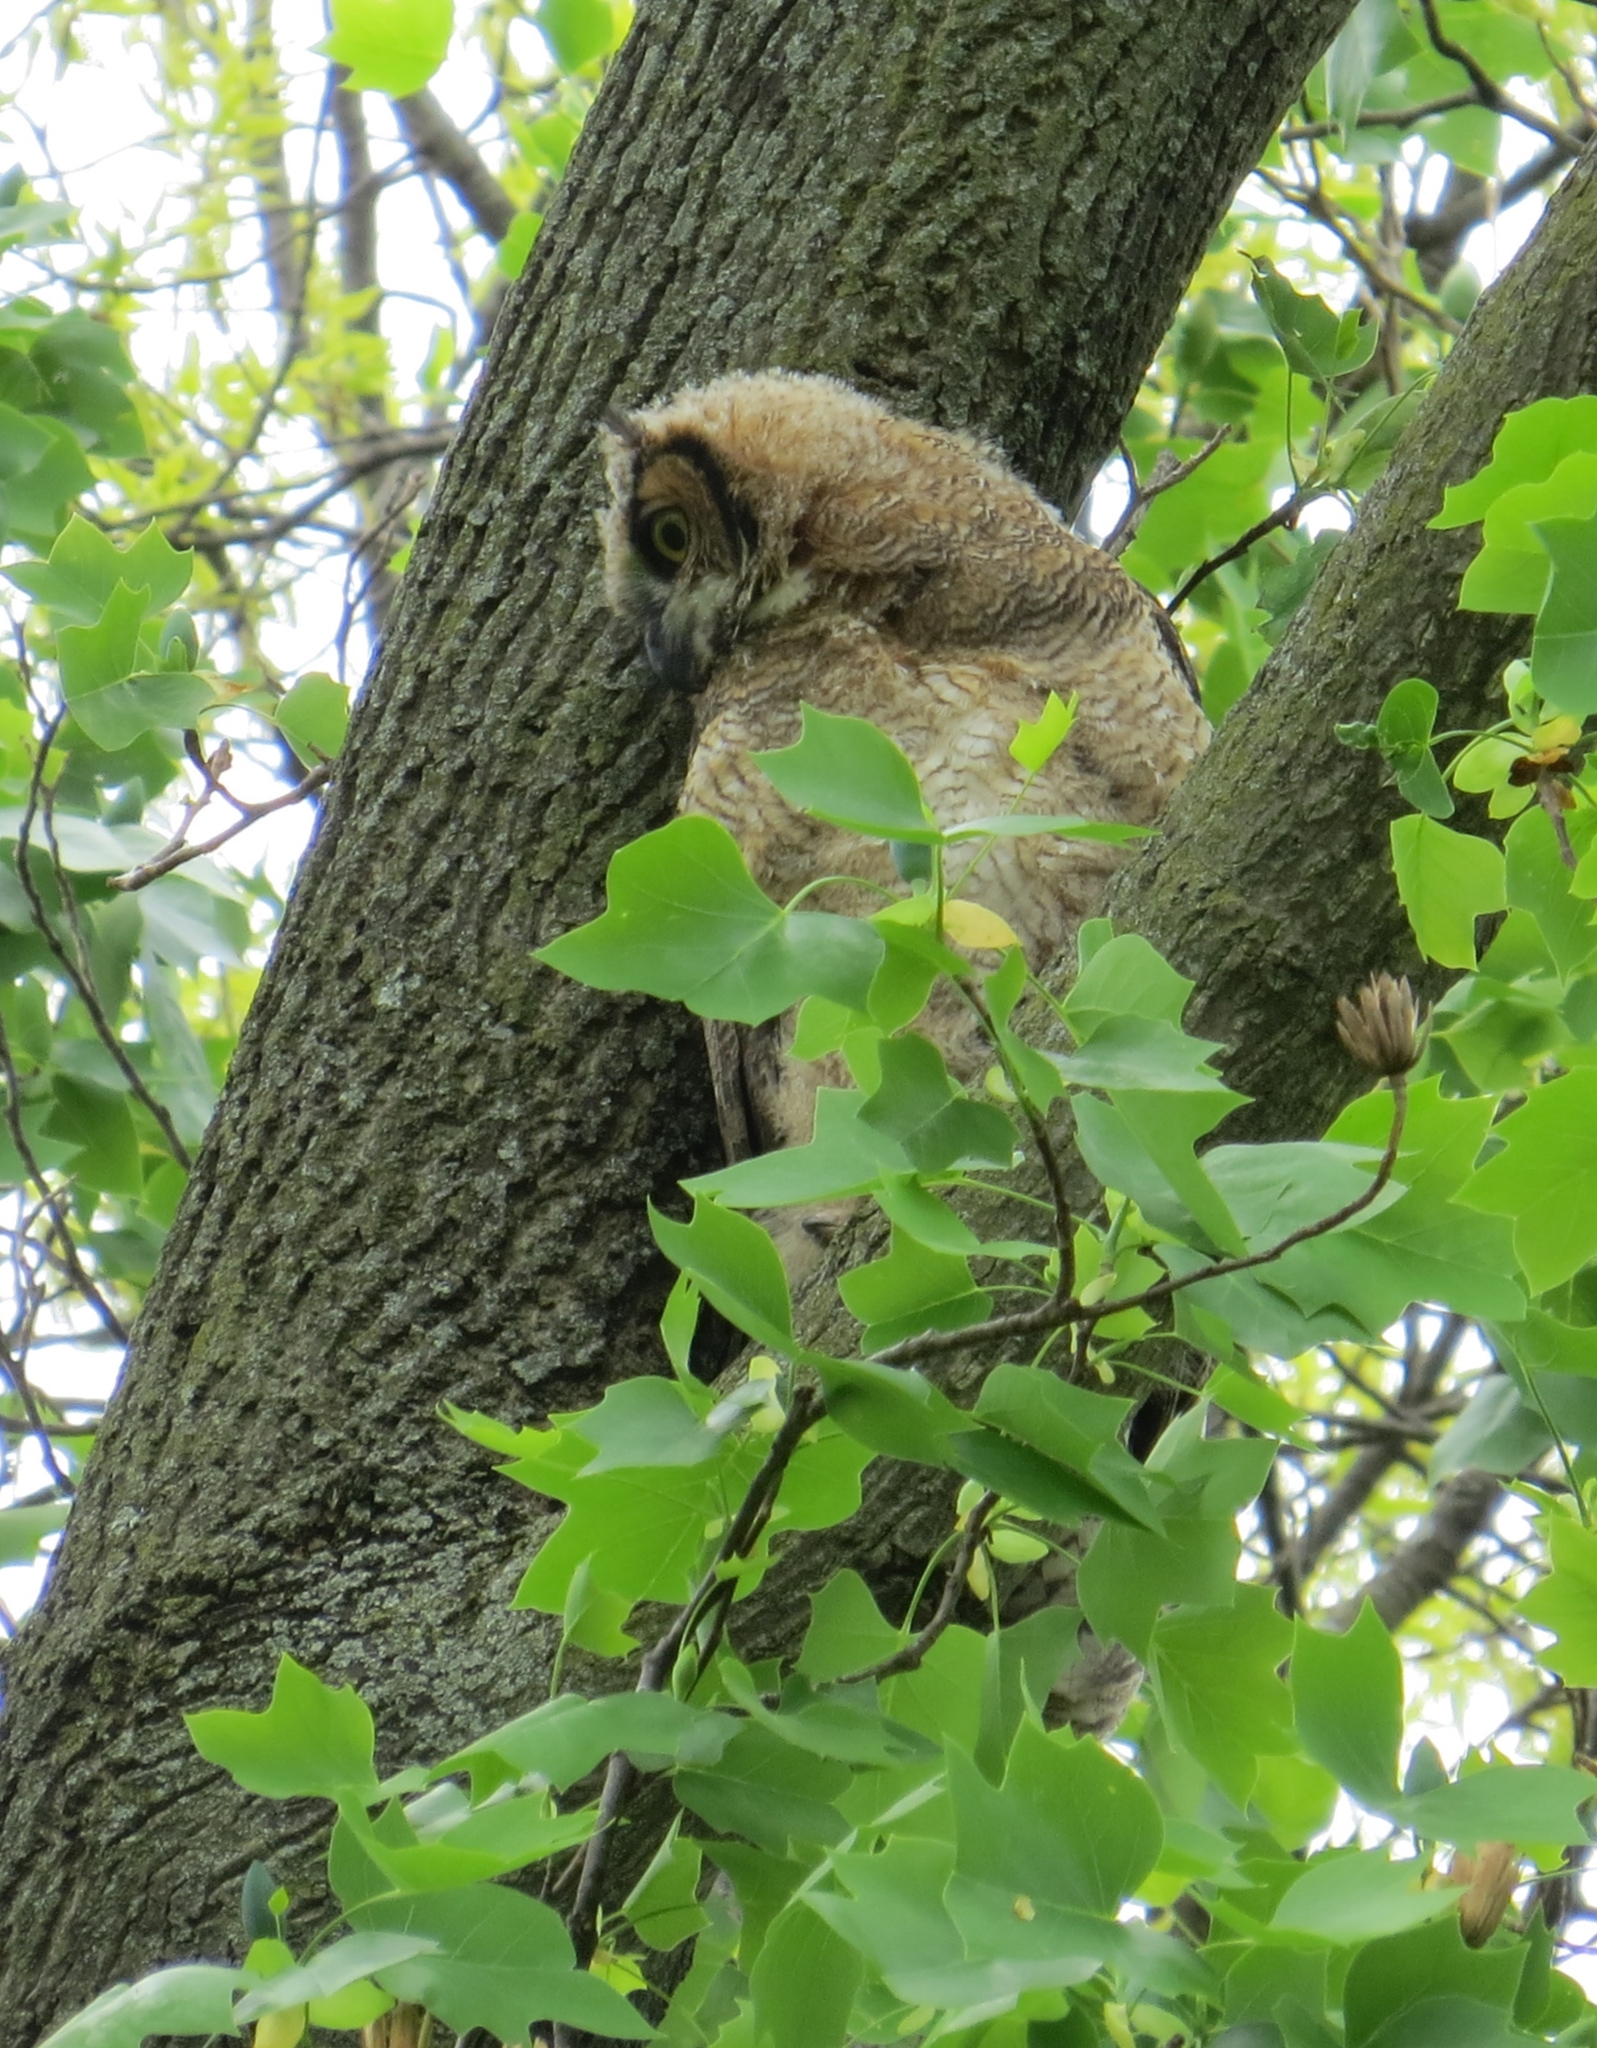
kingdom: Animalia
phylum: Chordata
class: Aves
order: Strigiformes
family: Strigidae
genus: Bubo
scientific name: Bubo virginianus
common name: Great horned owl
